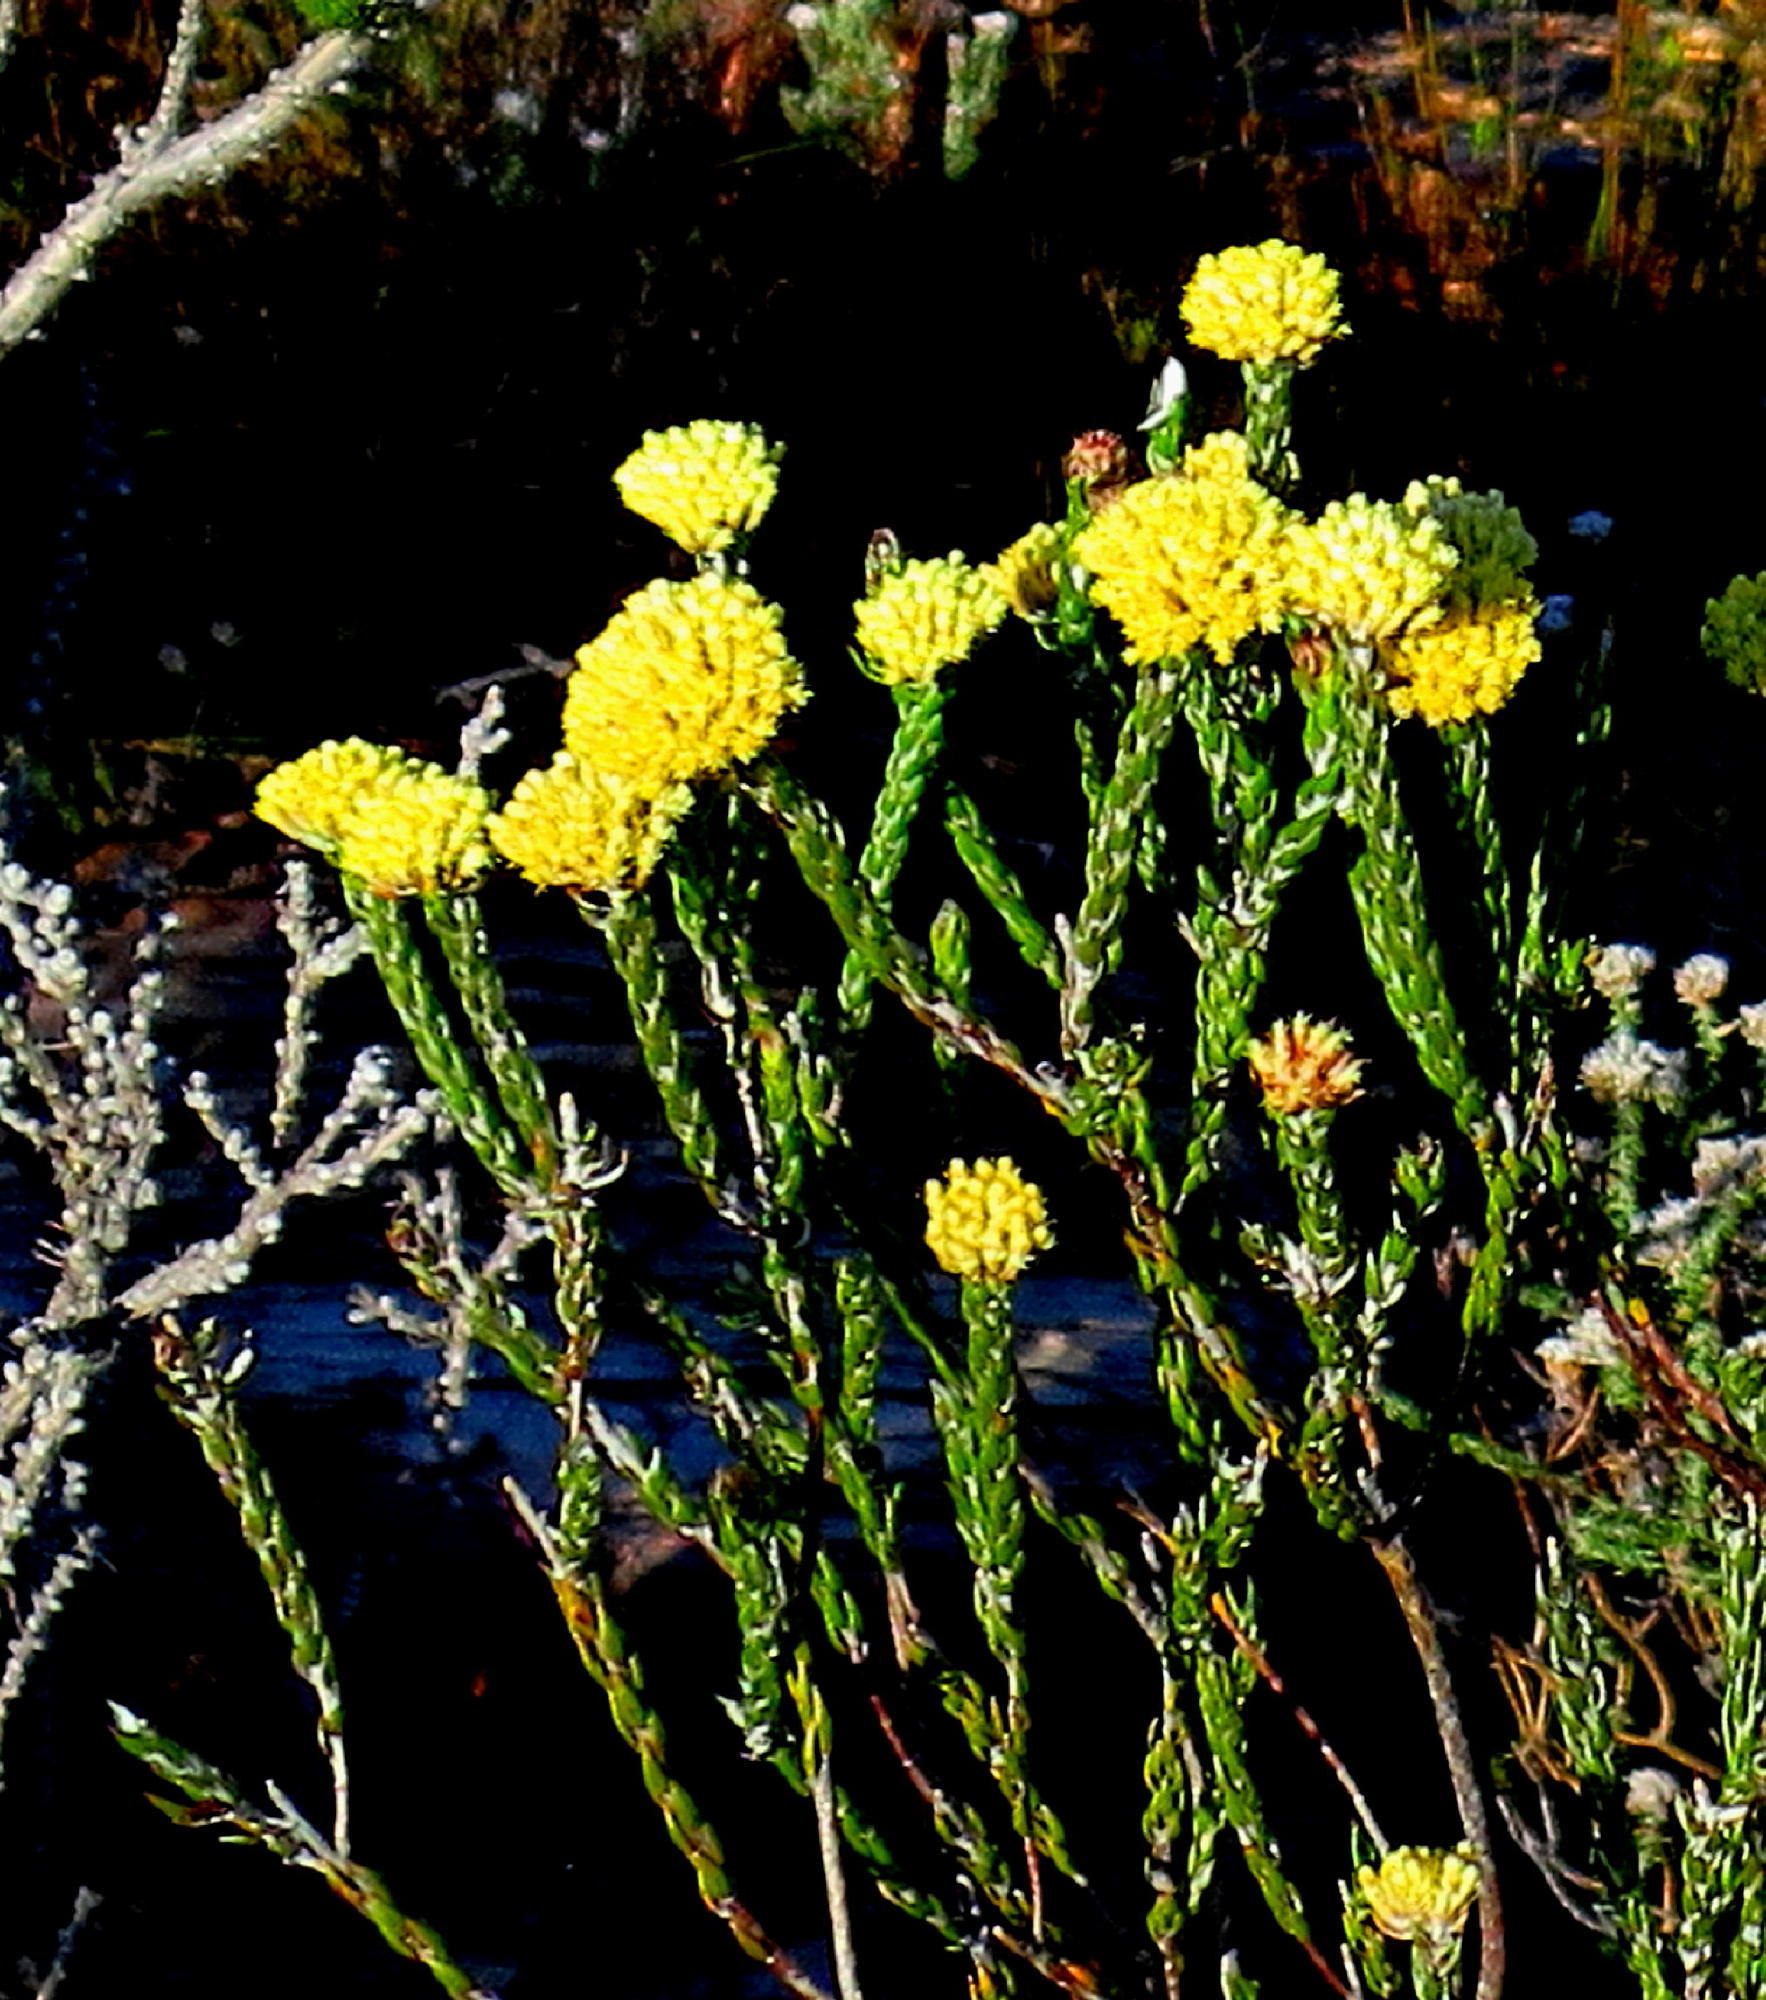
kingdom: Plantae
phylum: Tracheophyta
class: Magnoliopsida
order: Asterales
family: Asteraceae
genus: Metalasia
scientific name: Metalasia pulcherrima
